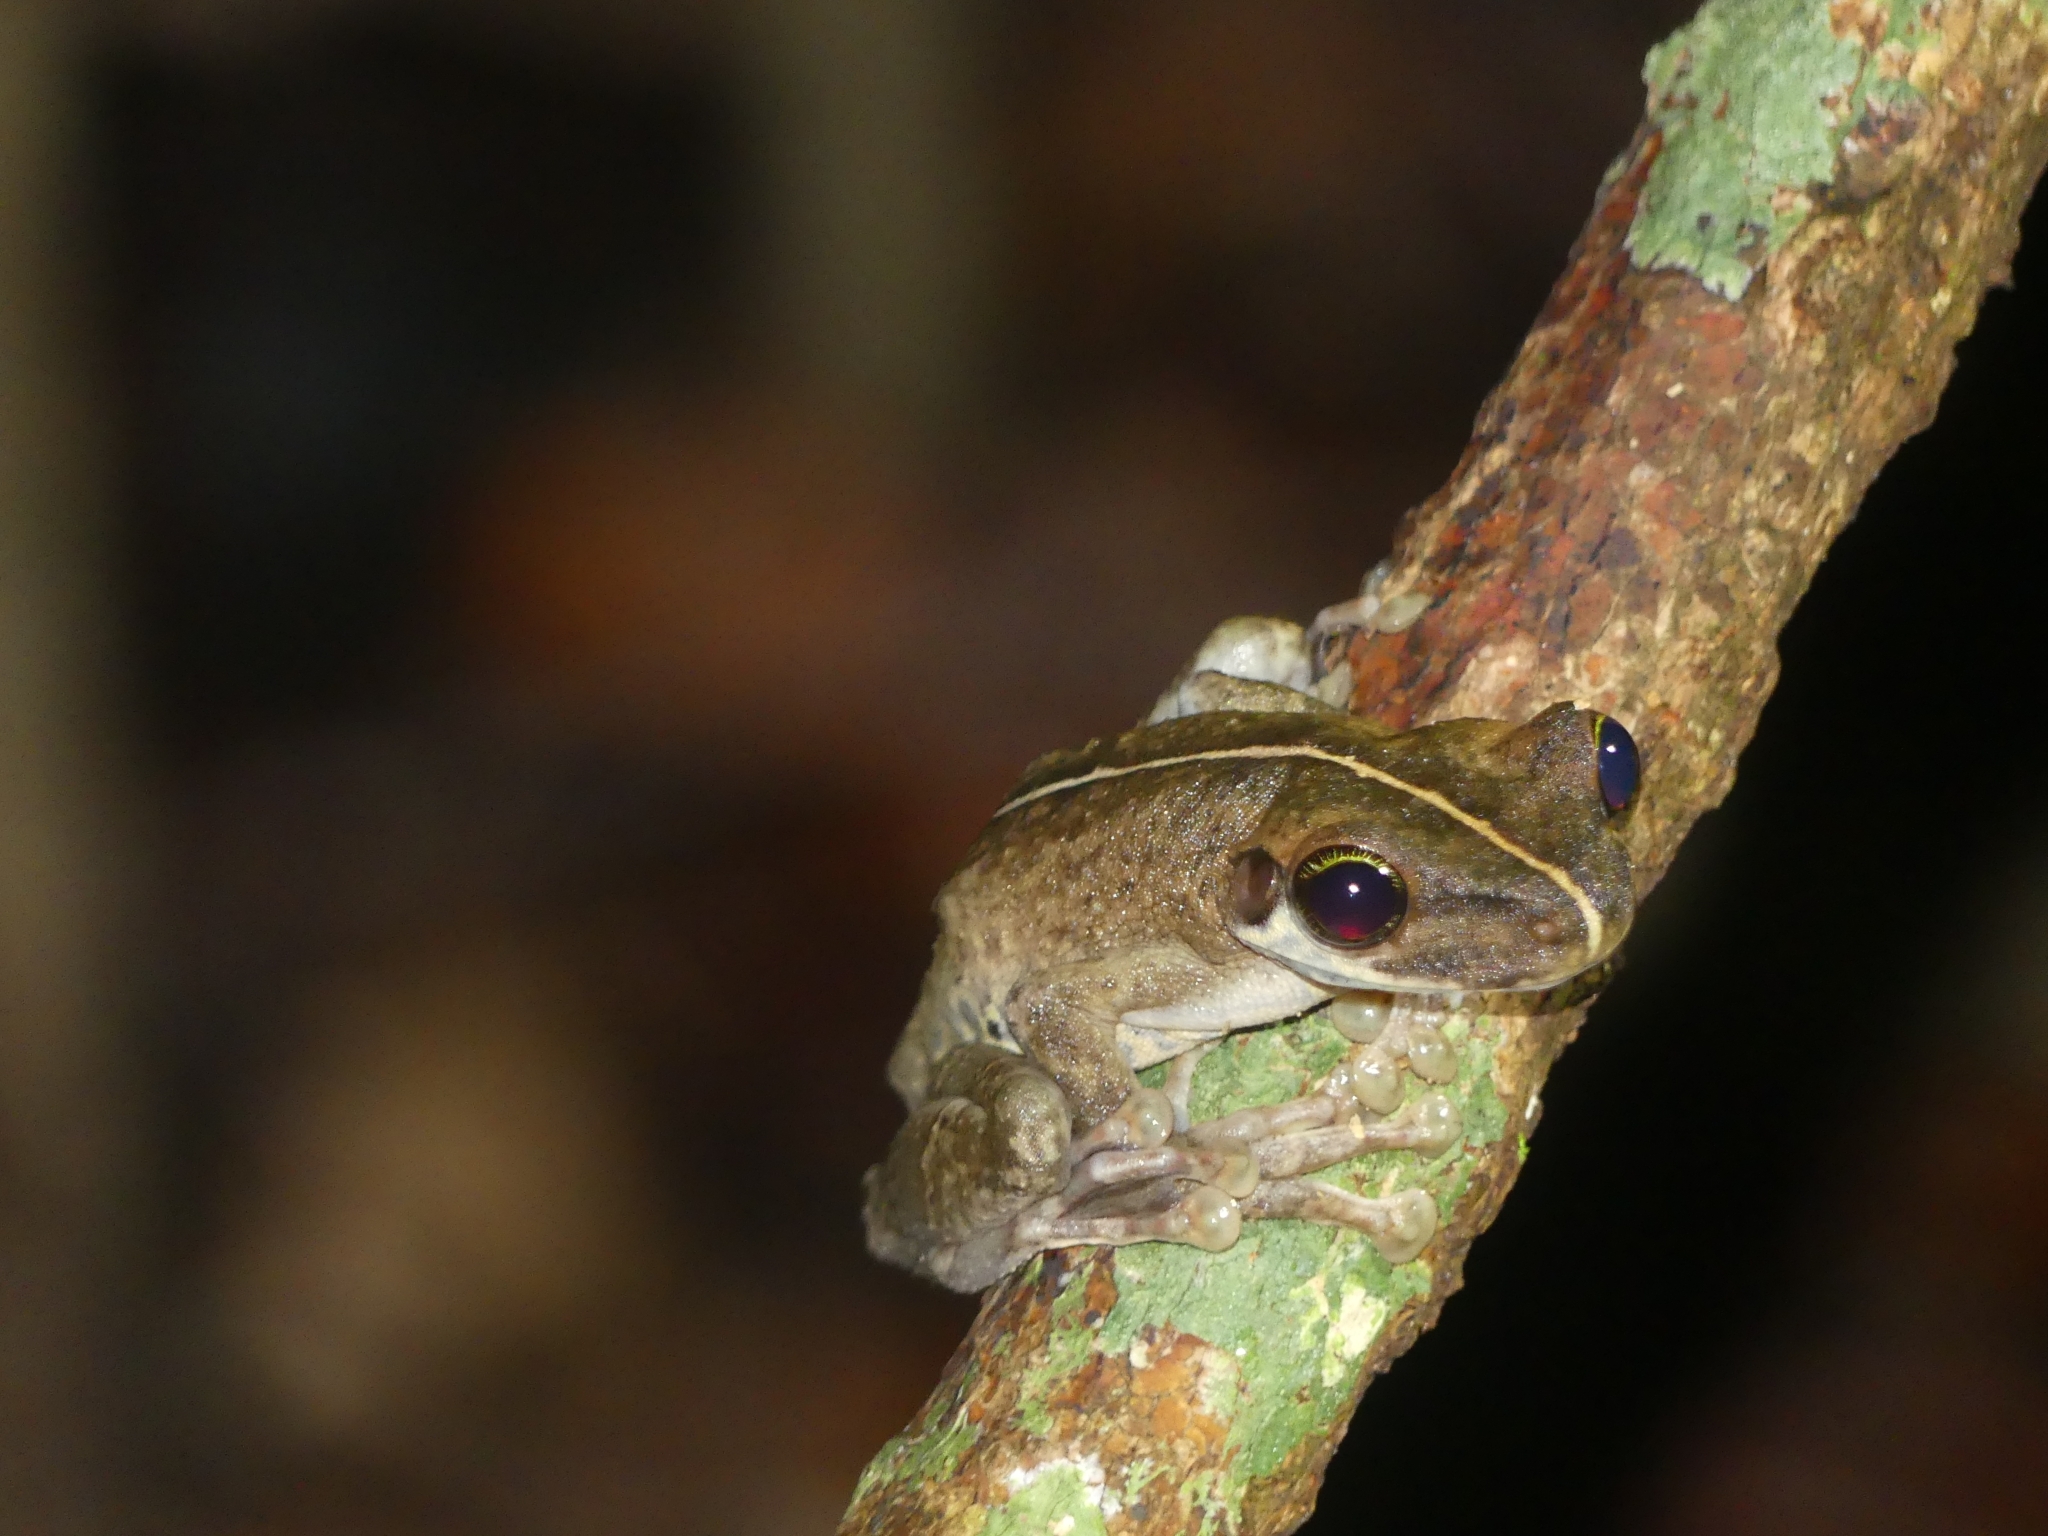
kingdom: Animalia
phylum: Chordata
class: Amphibia
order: Anura
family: Hylidae
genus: Osteocephalus
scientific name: Osteocephalus taurinus
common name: Manaus slender-legged treefrog
